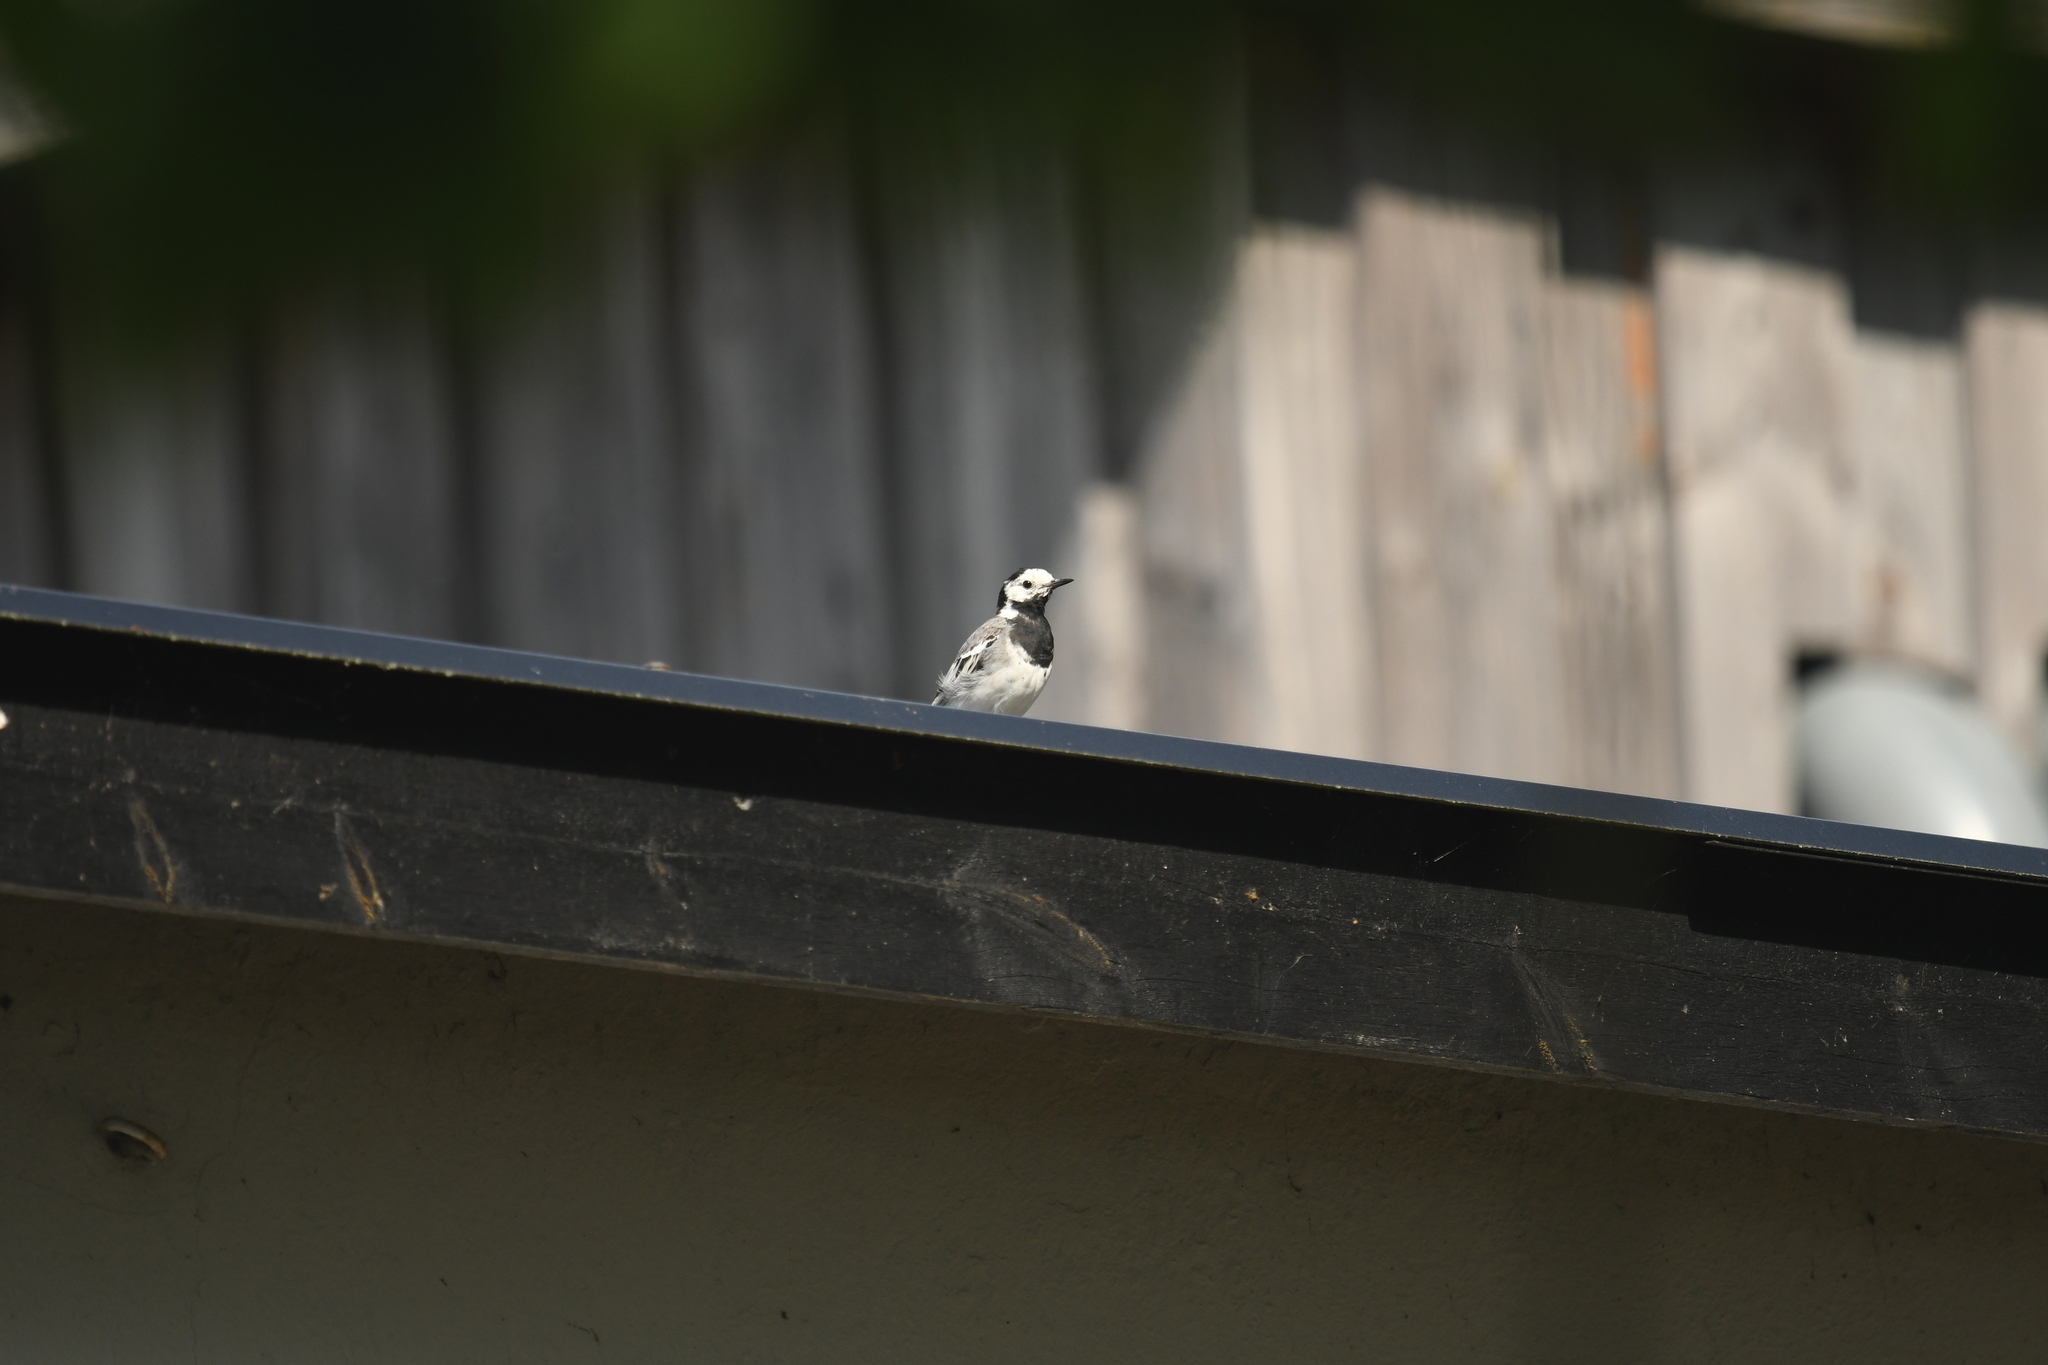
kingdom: Animalia
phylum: Chordata
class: Aves
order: Passeriformes
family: Motacillidae
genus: Motacilla
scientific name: Motacilla alba
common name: White wagtail
